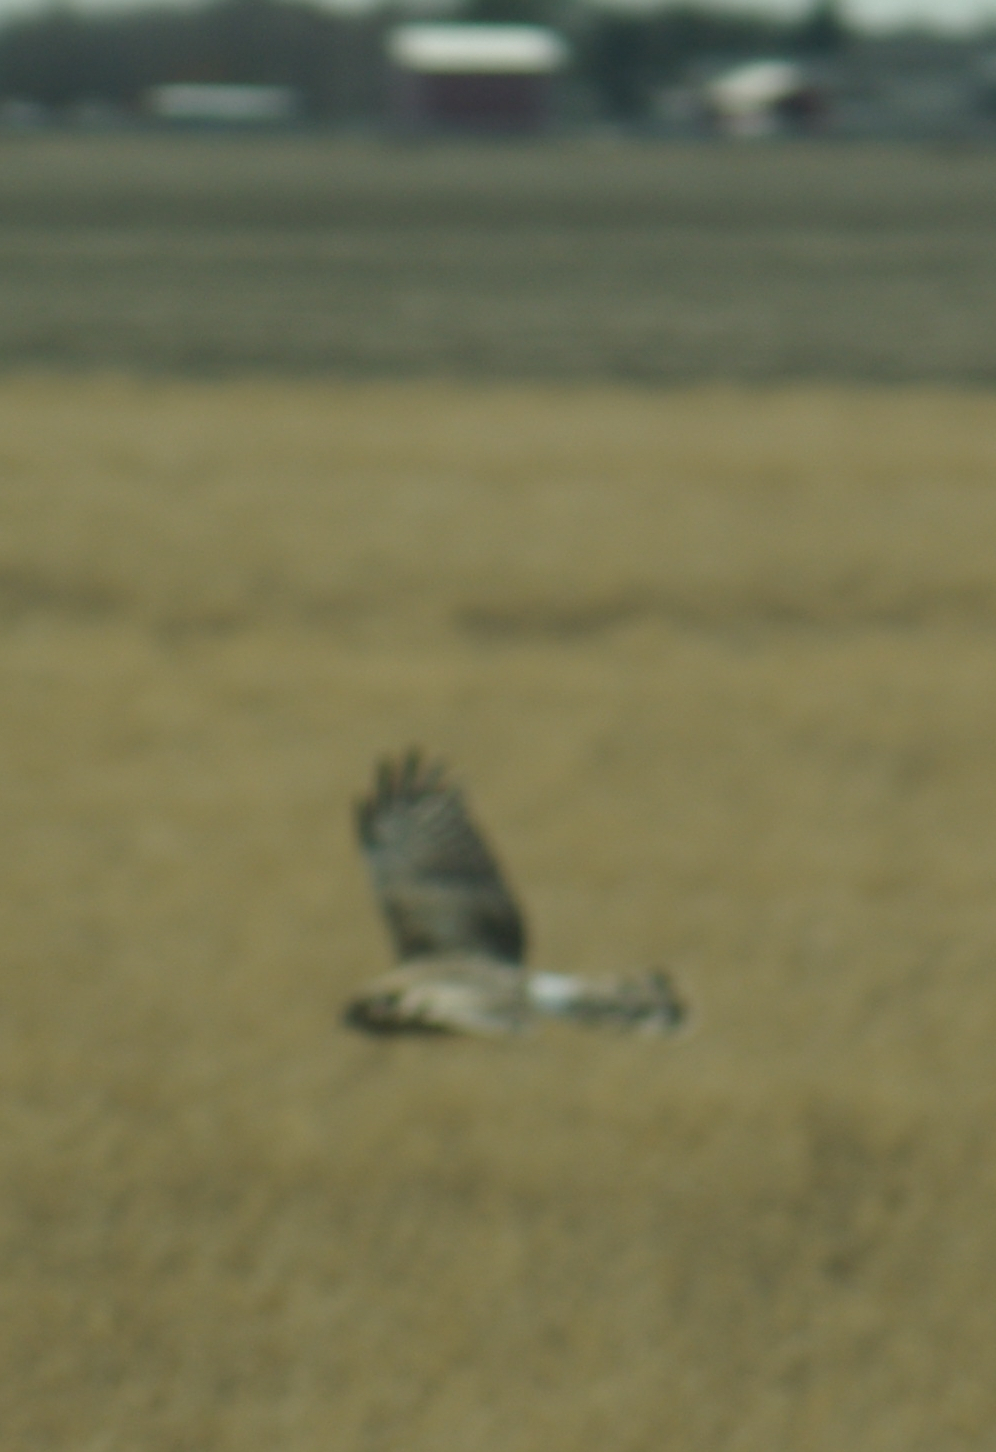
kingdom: Animalia
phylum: Chordata
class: Aves
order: Accipitriformes
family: Accipitridae
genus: Circus
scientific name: Circus cyaneus
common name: Hen harrier
